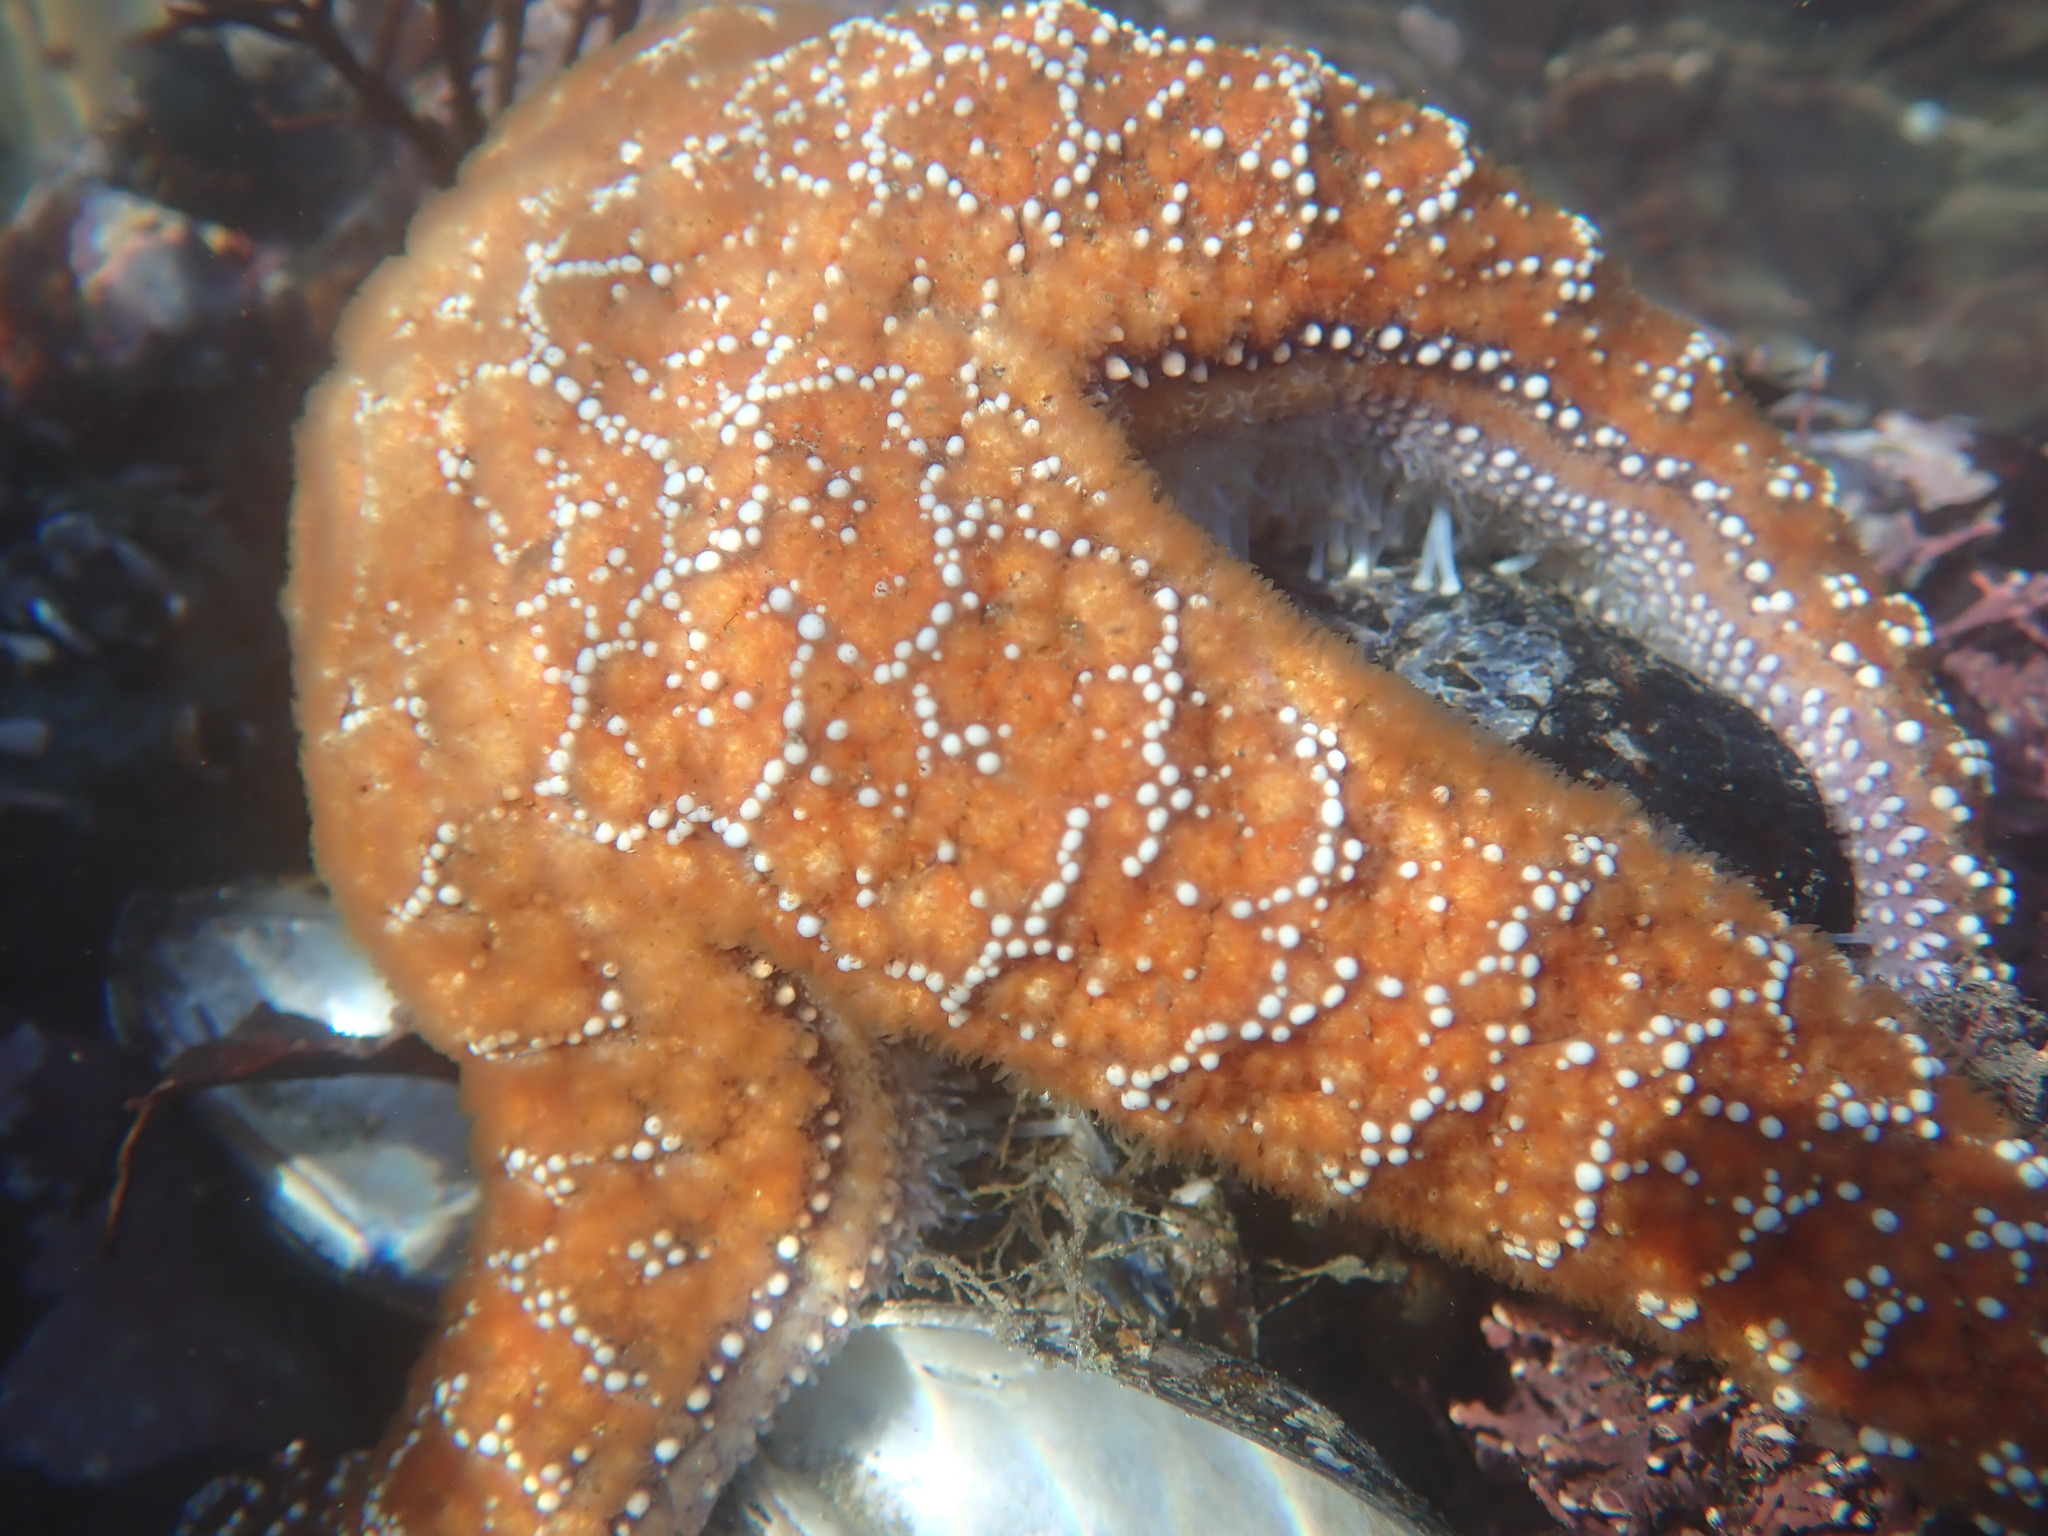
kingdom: Animalia
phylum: Echinodermata
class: Asteroidea
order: Forcipulatida
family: Asteriidae
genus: Pisaster
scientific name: Pisaster ochraceus
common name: Ochre stars
